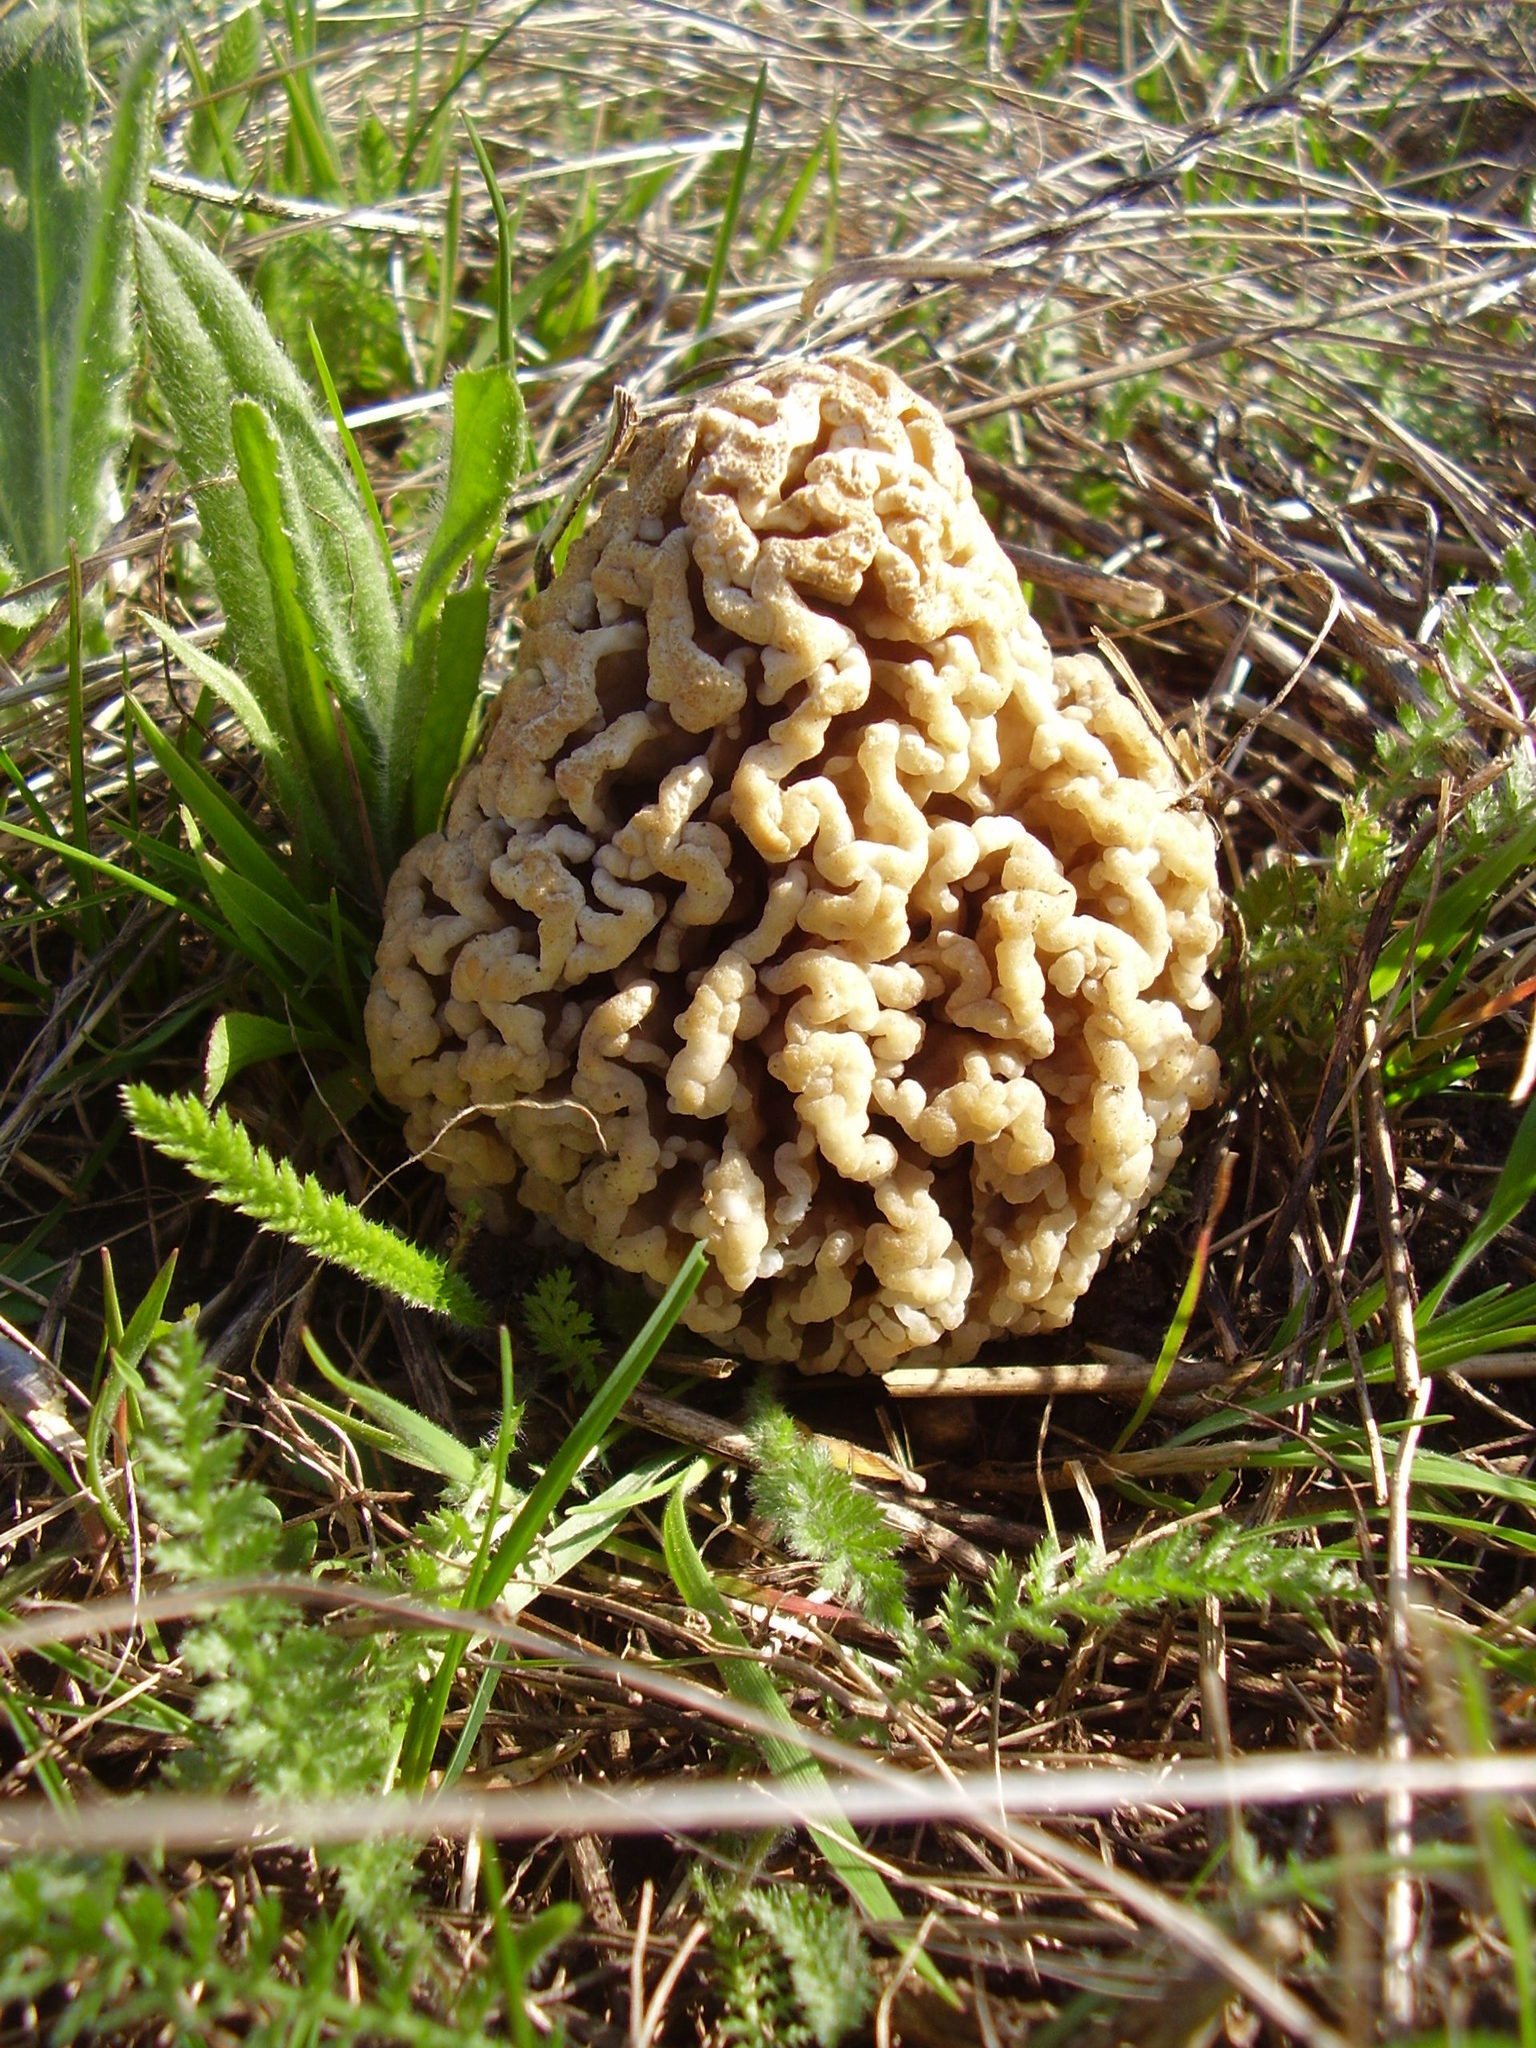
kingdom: Fungi
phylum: Ascomycota
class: Pezizomycetes
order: Pezizales
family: Morchellaceae
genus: Morchella
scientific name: Morchella steppicola
